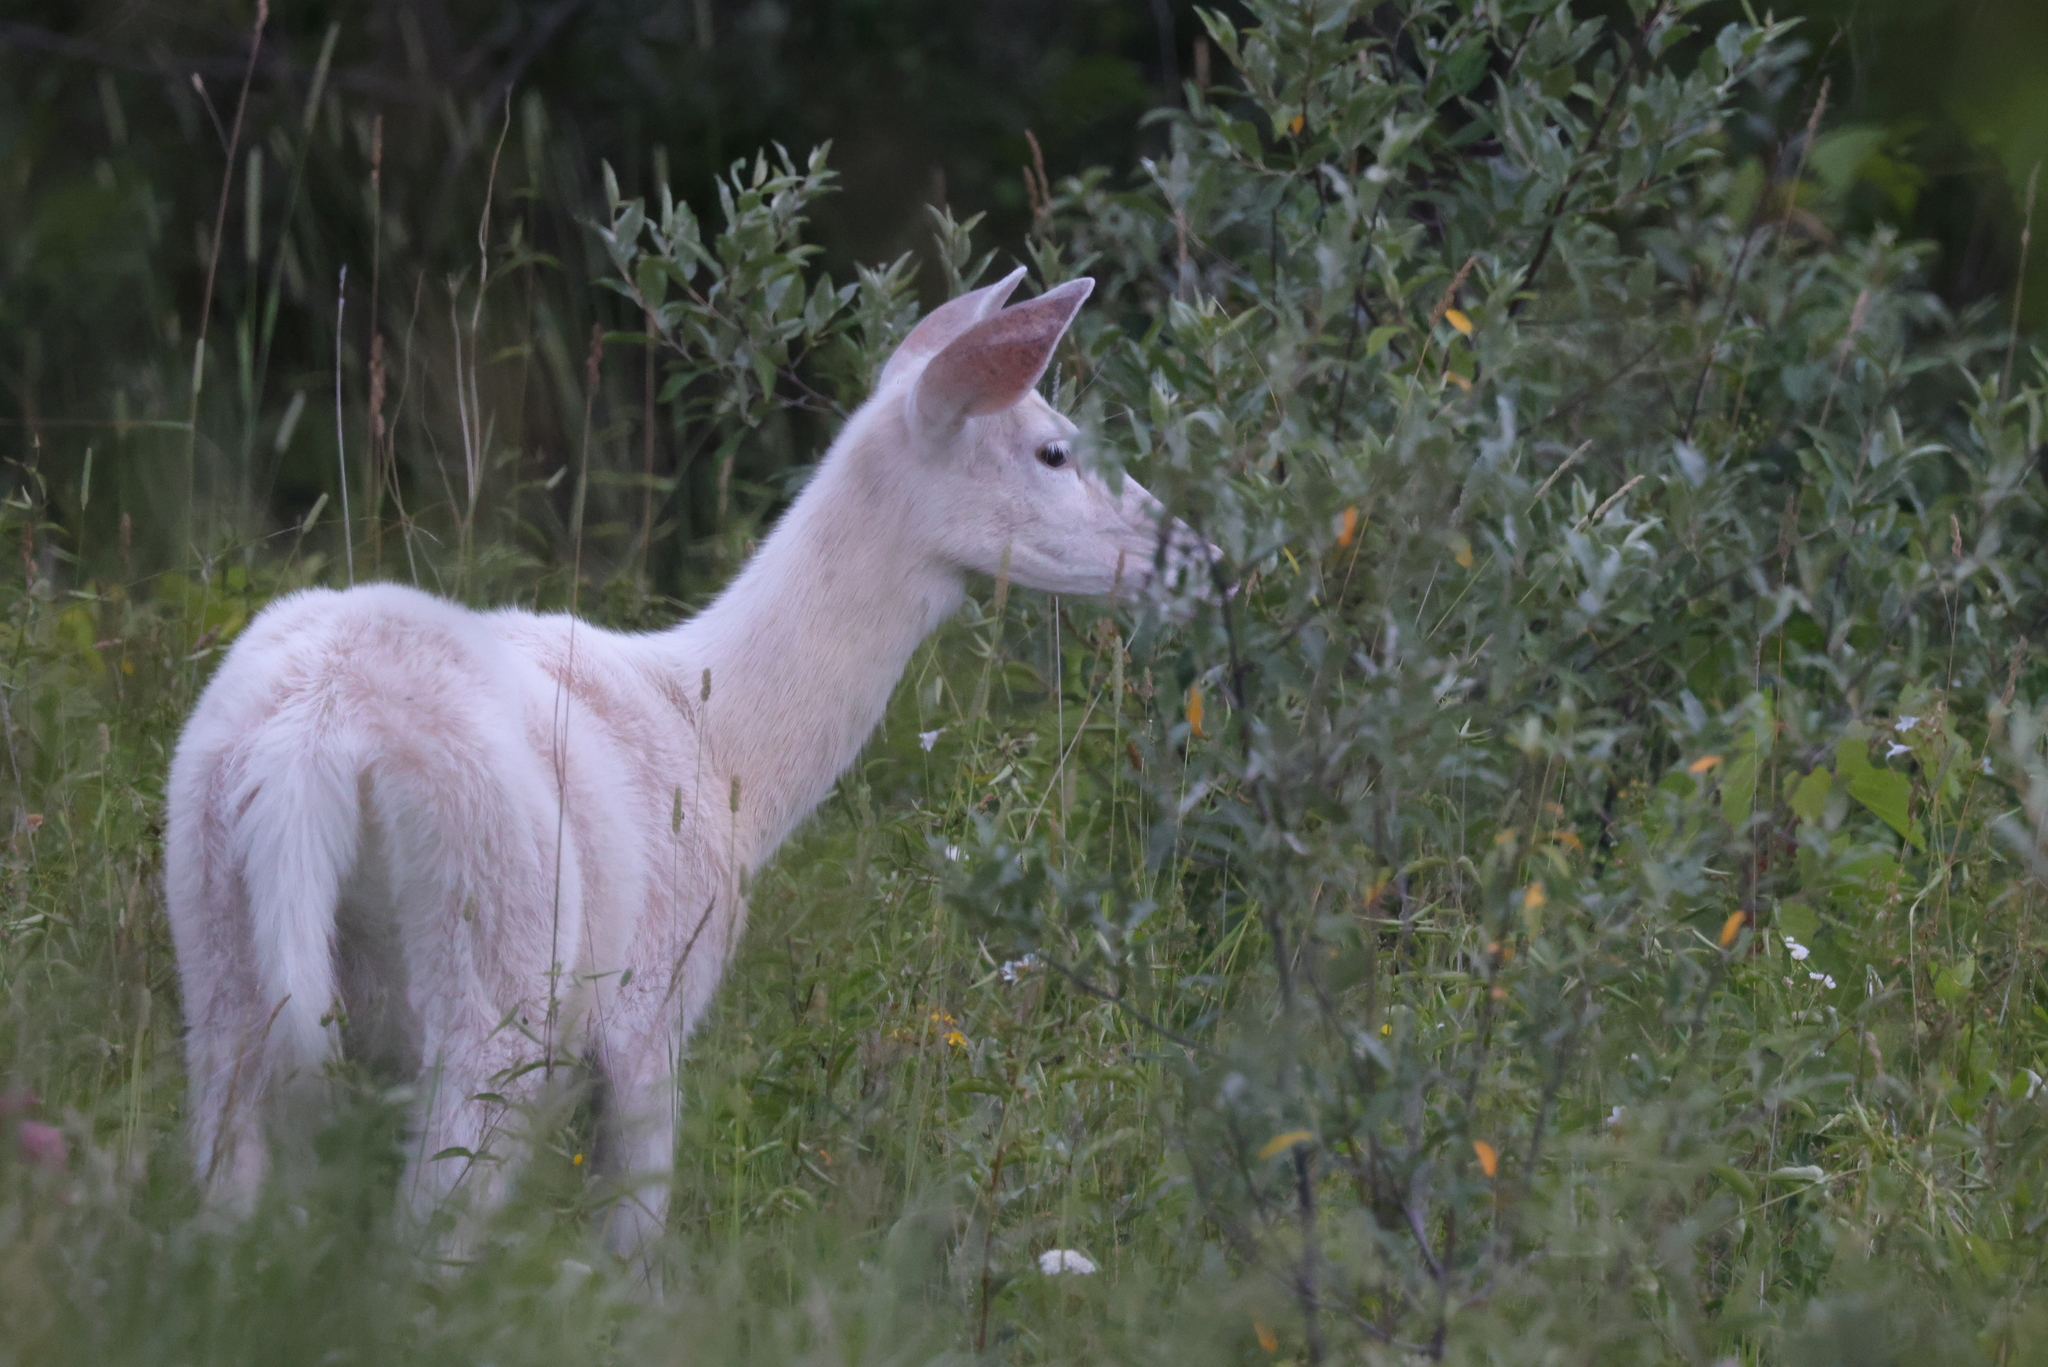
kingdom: Animalia
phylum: Chordata
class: Mammalia
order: Artiodactyla
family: Cervidae
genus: Odocoileus
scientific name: Odocoileus virginianus
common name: White-tailed deer
